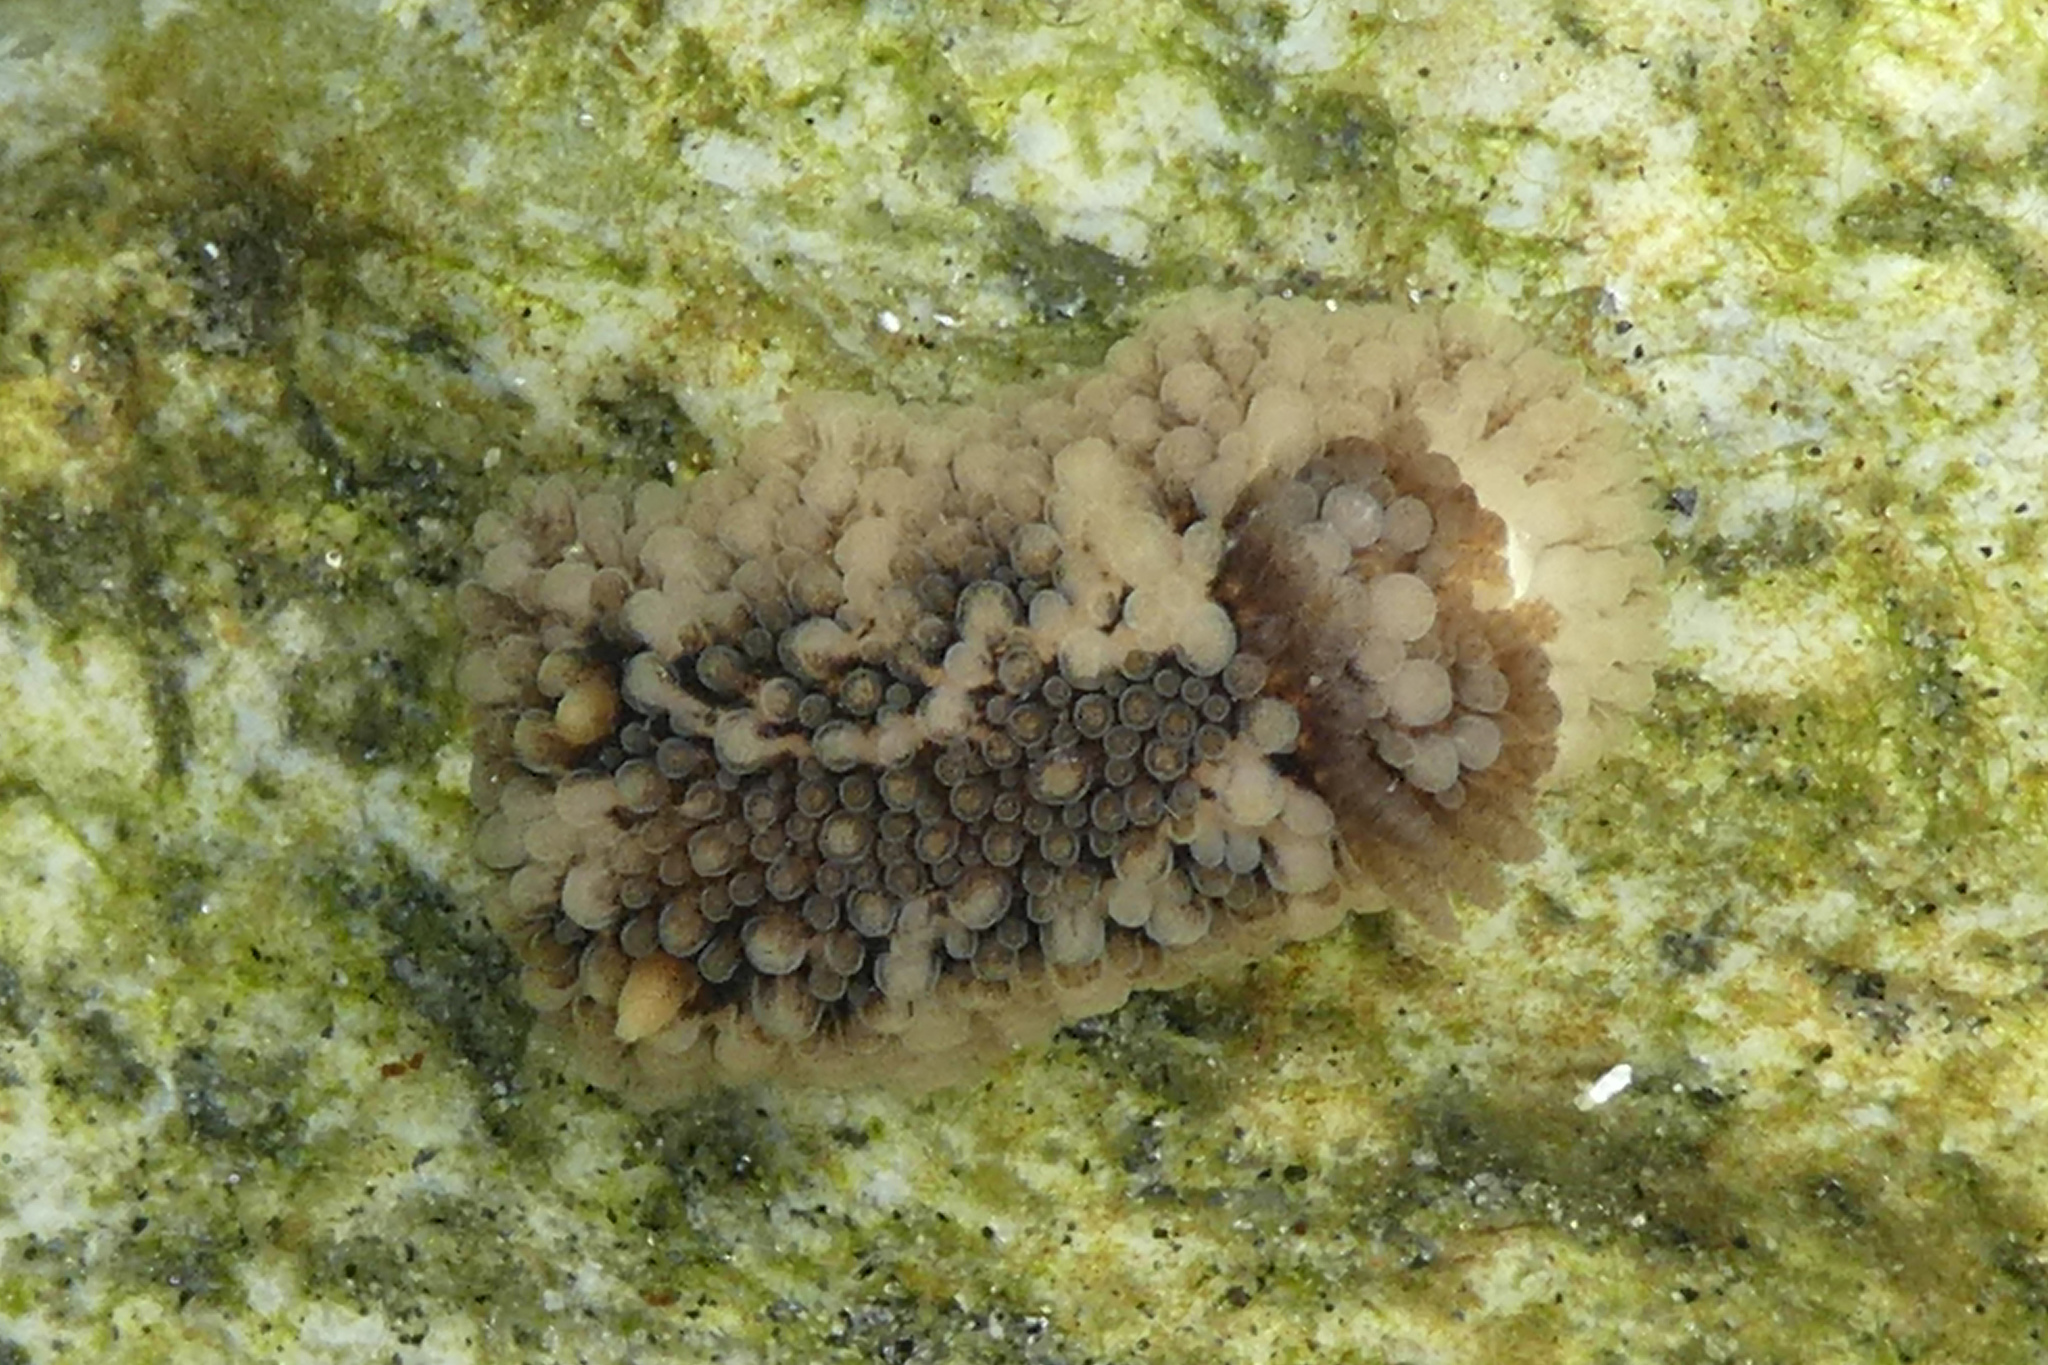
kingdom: Animalia
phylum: Mollusca
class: Gastropoda
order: Nudibranchia
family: Onchidorididae
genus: Onchidoris
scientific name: Onchidoris bilamellata
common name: Barnacle-eating onchidoris
